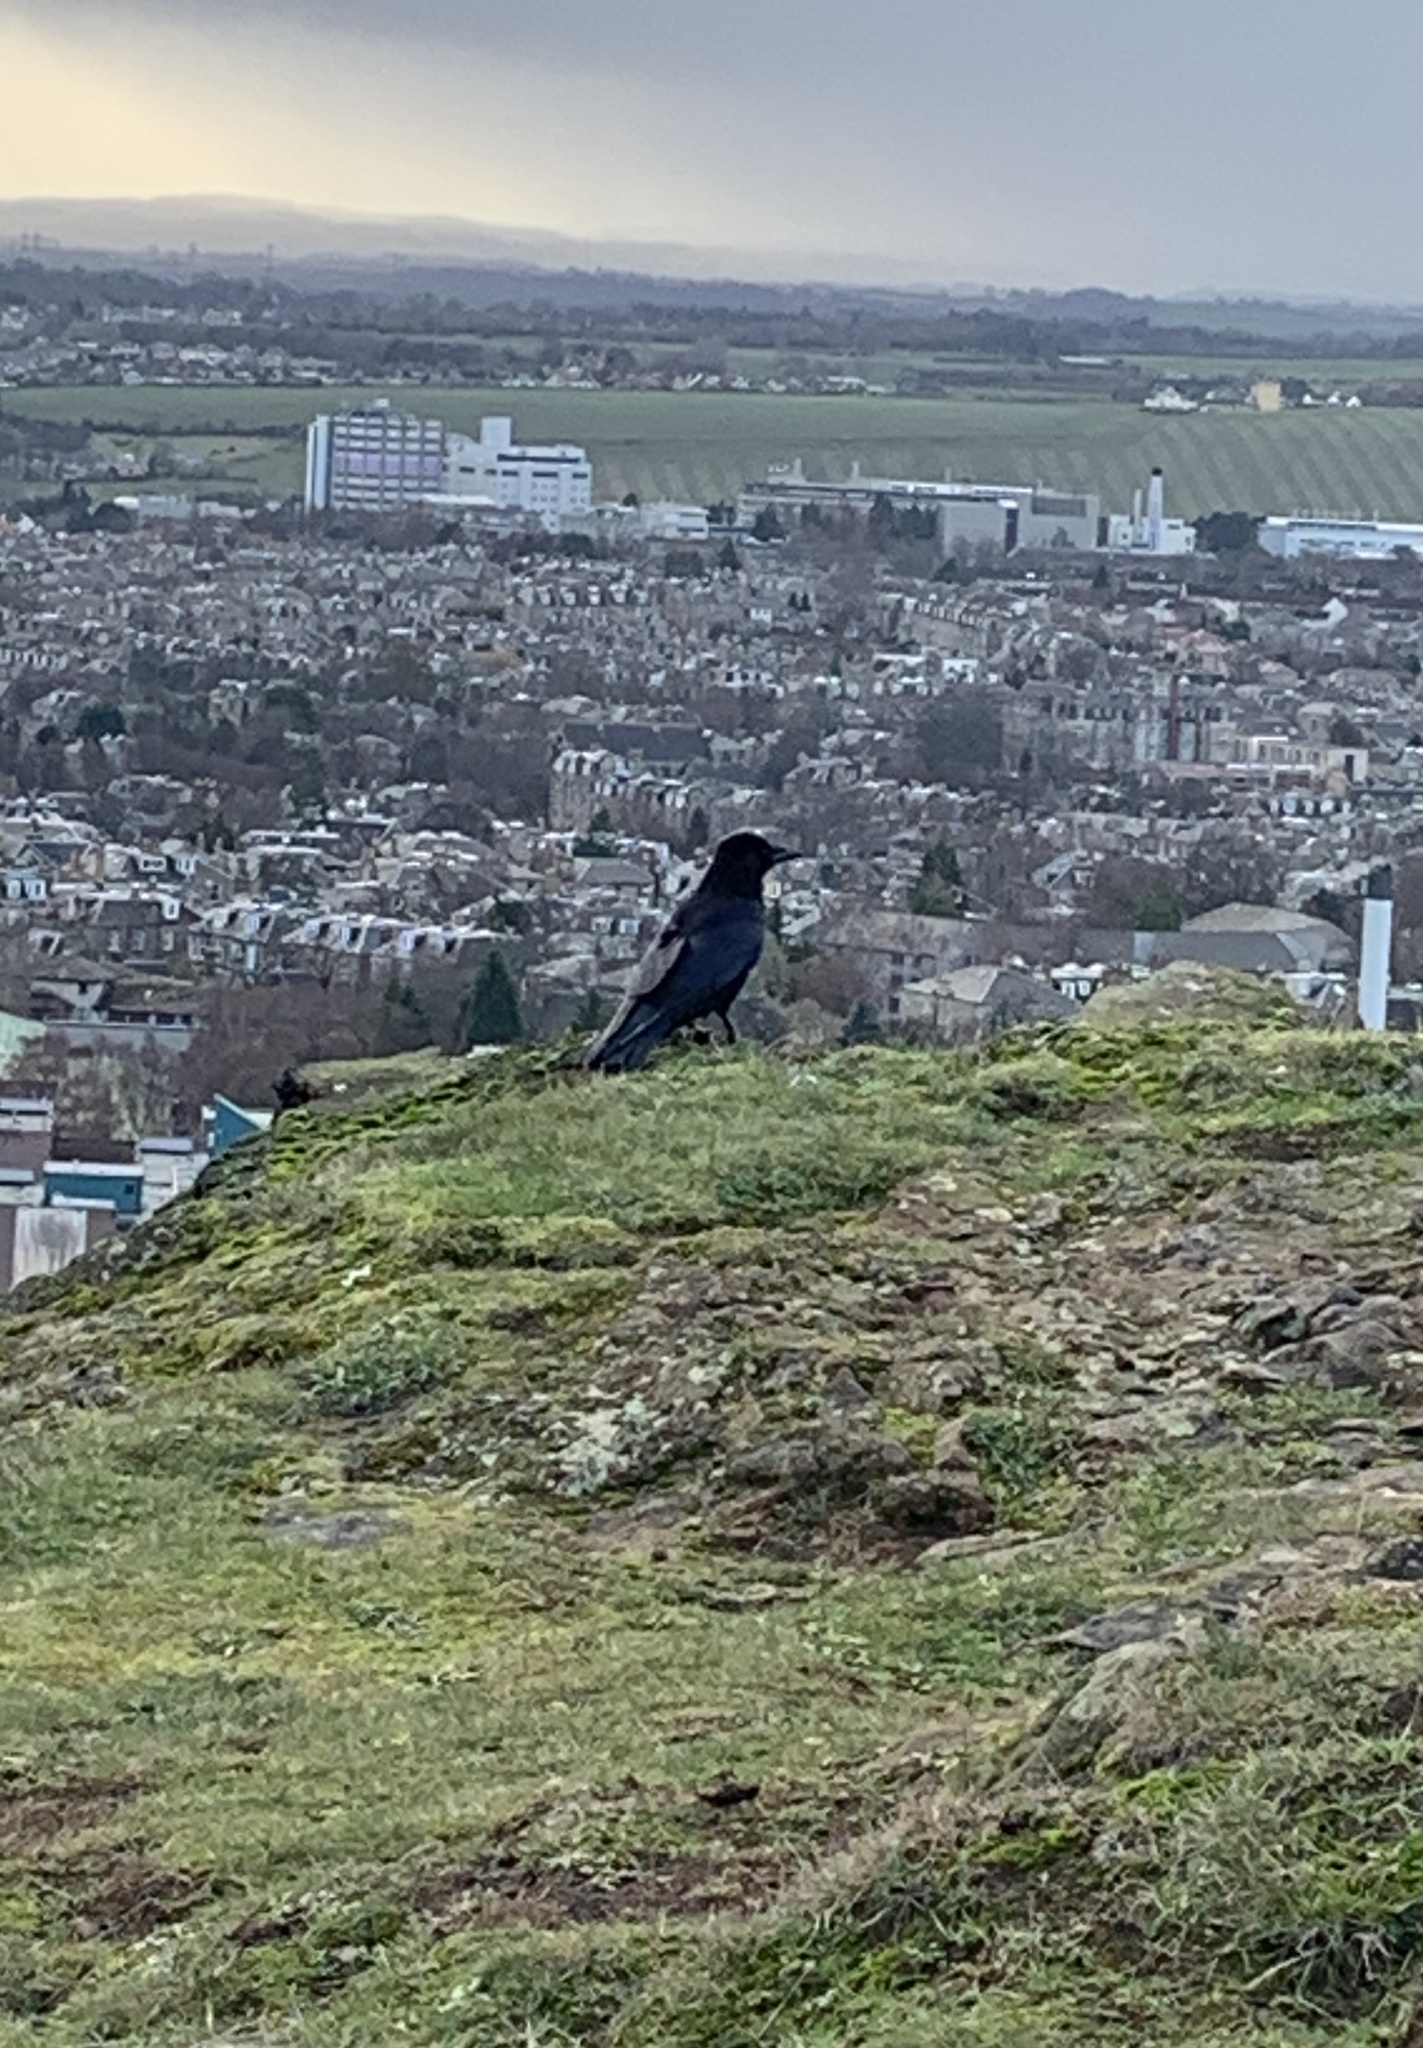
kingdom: Animalia
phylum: Chordata
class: Aves
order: Passeriformes
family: Corvidae
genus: Corvus
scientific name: Corvus corone
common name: Carrion crow
